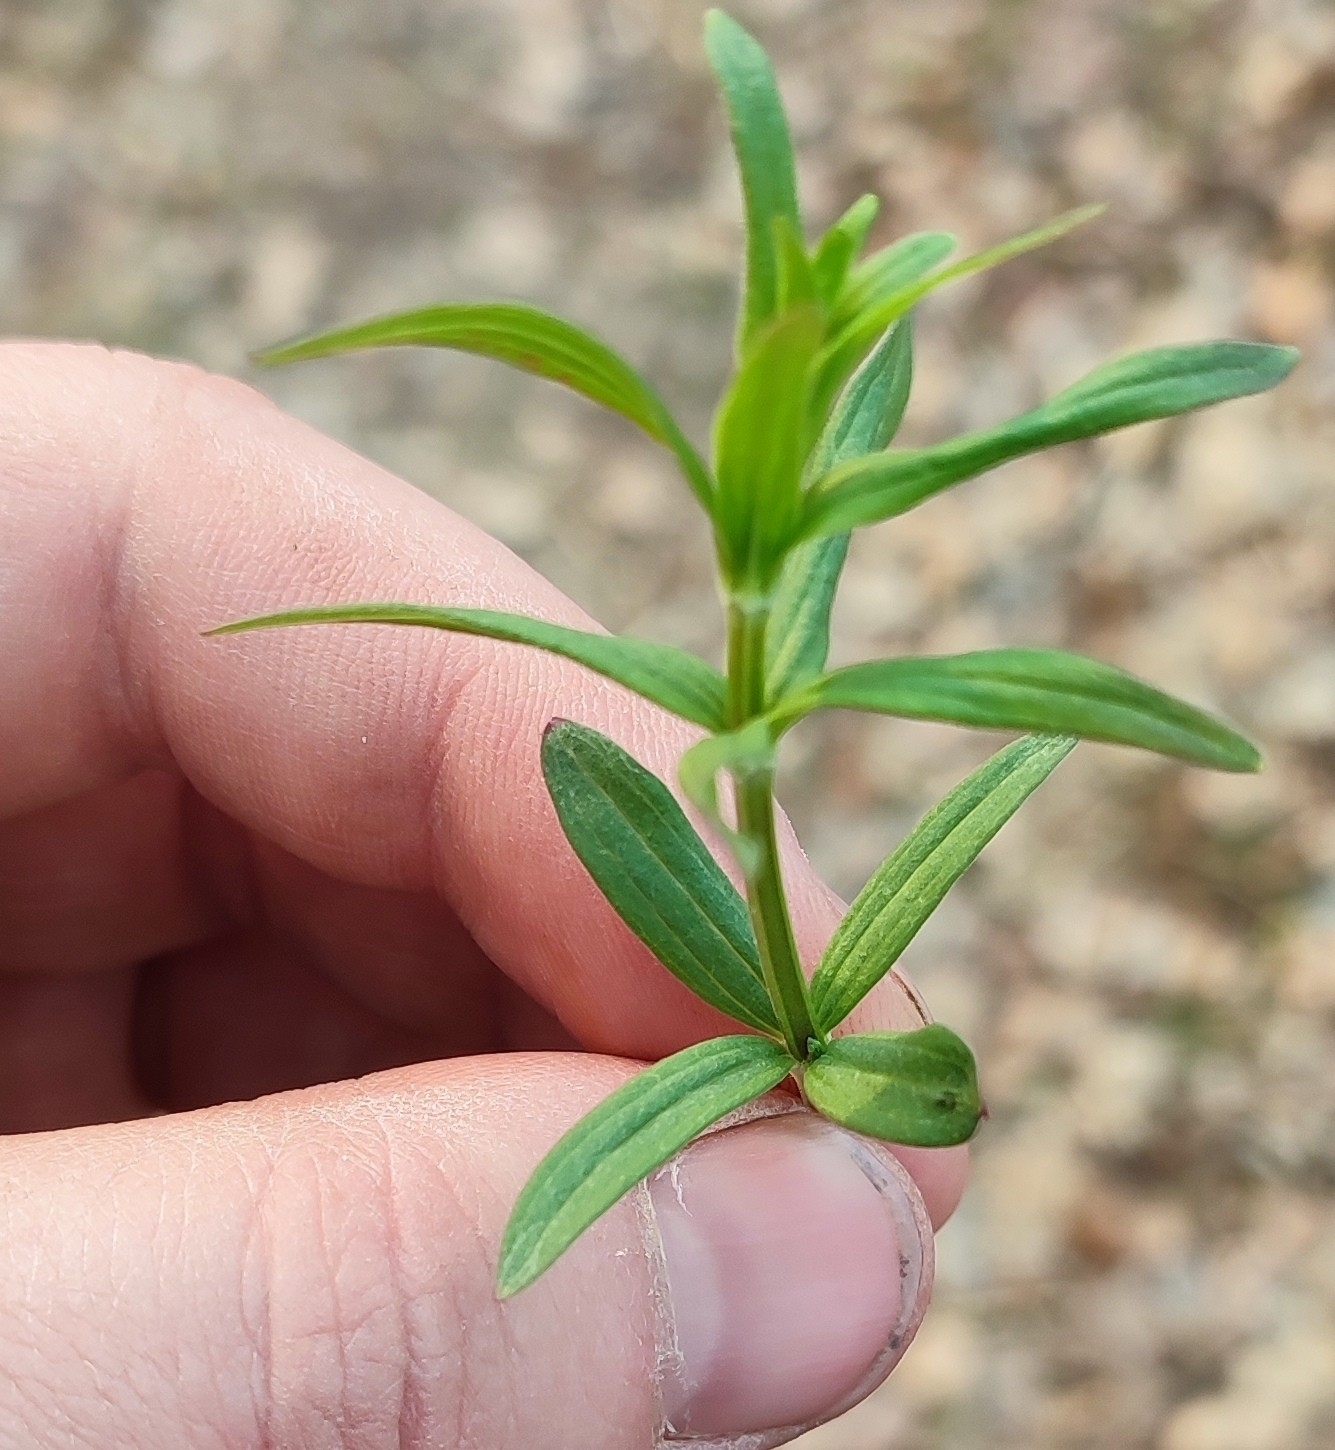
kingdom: Plantae
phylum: Tracheophyta
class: Magnoliopsida
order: Gentianales
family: Rubiaceae
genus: Galium
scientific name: Galium rubioides
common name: European bedstraw
